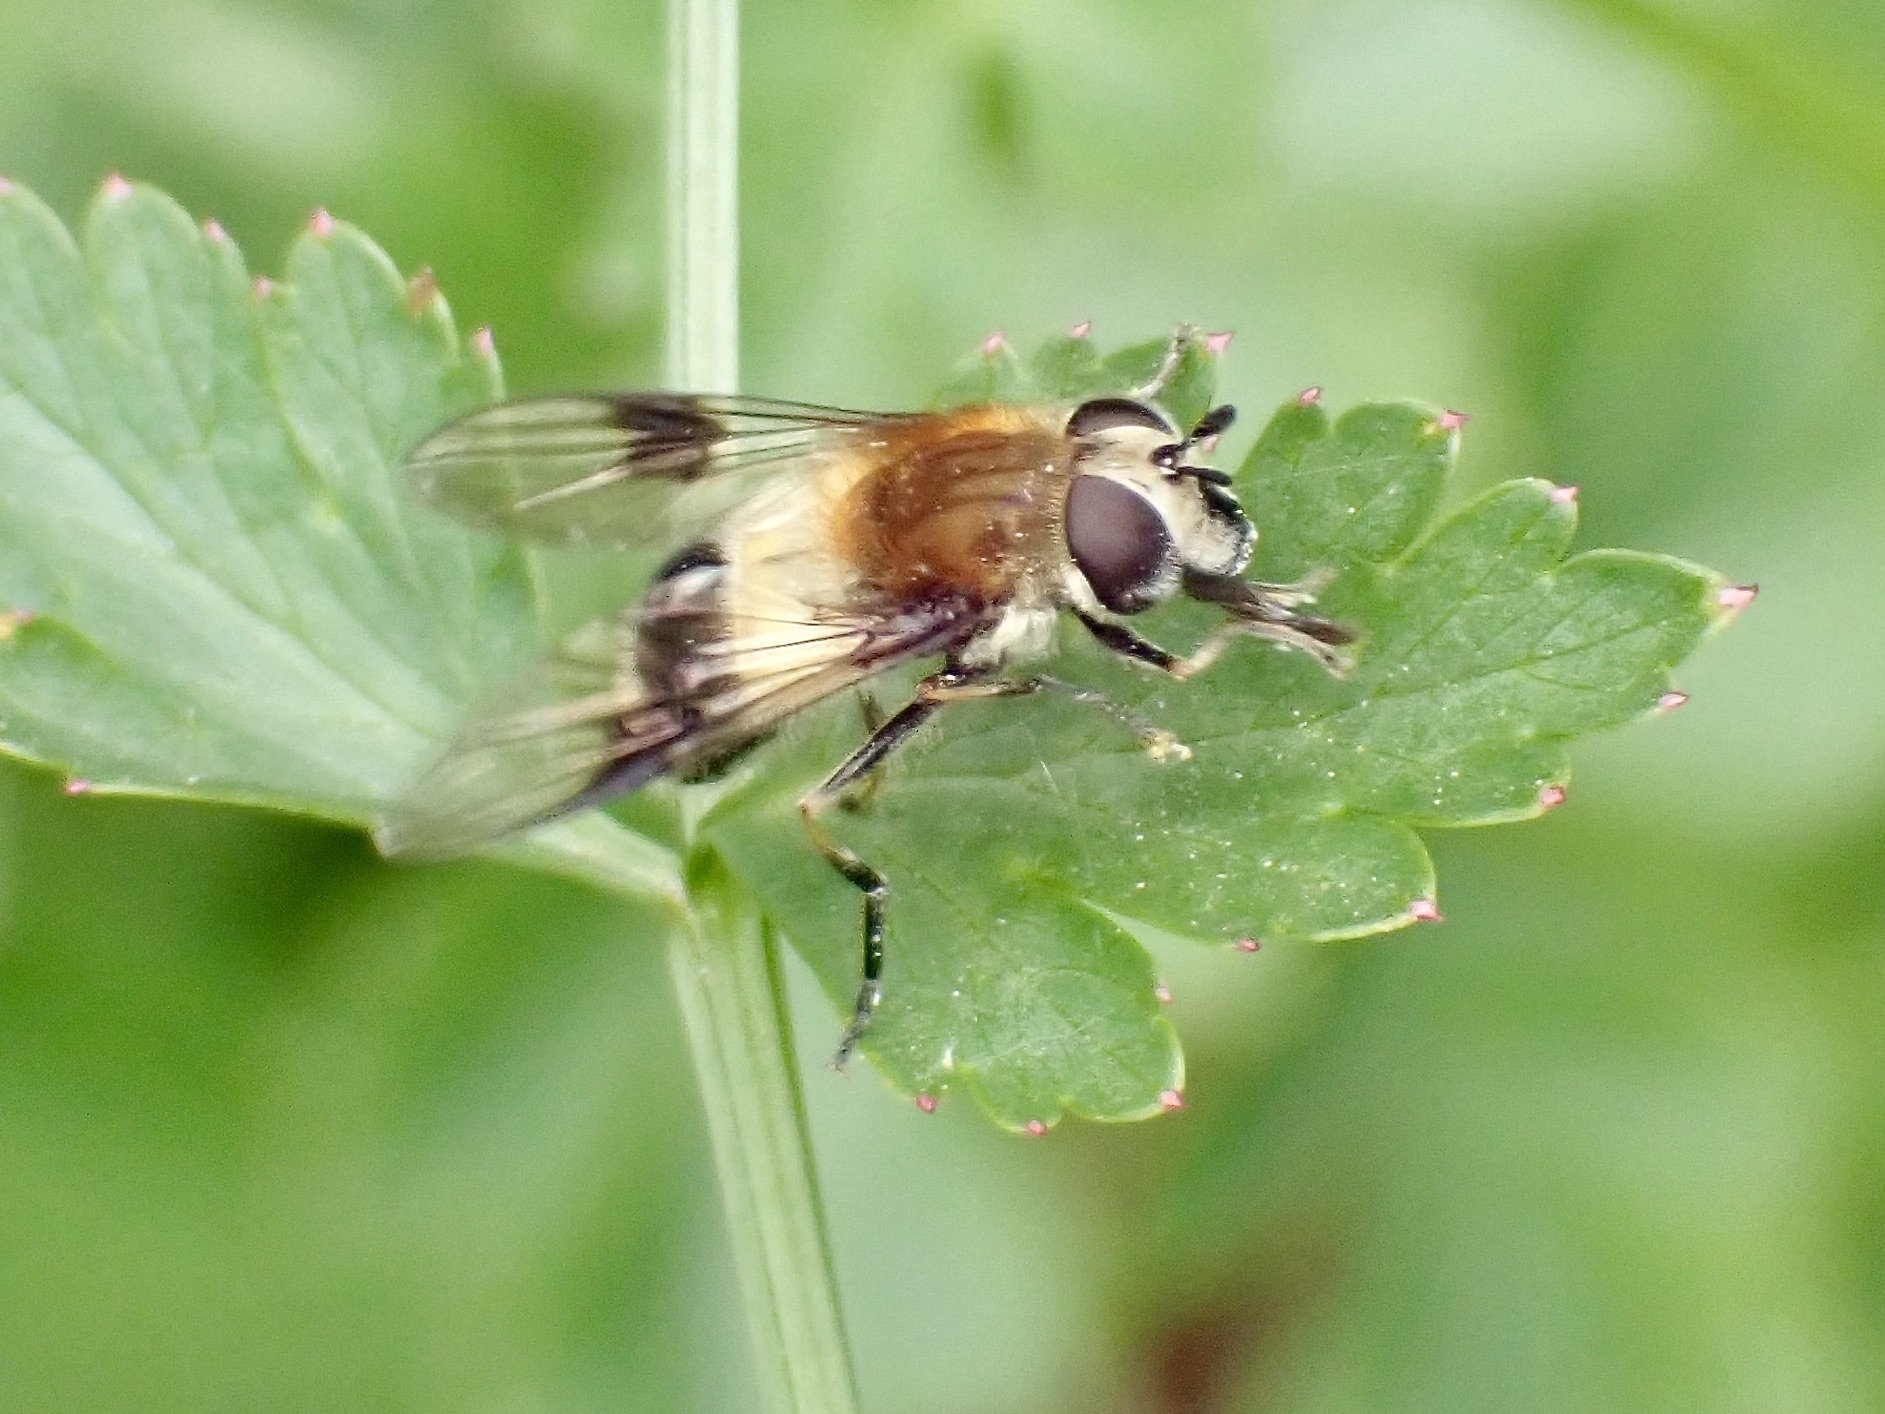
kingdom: Animalia
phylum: Arthropoda
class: Insecta
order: Diptera
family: Syrphidae
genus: Leucozona
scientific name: Leucozona lucorum
